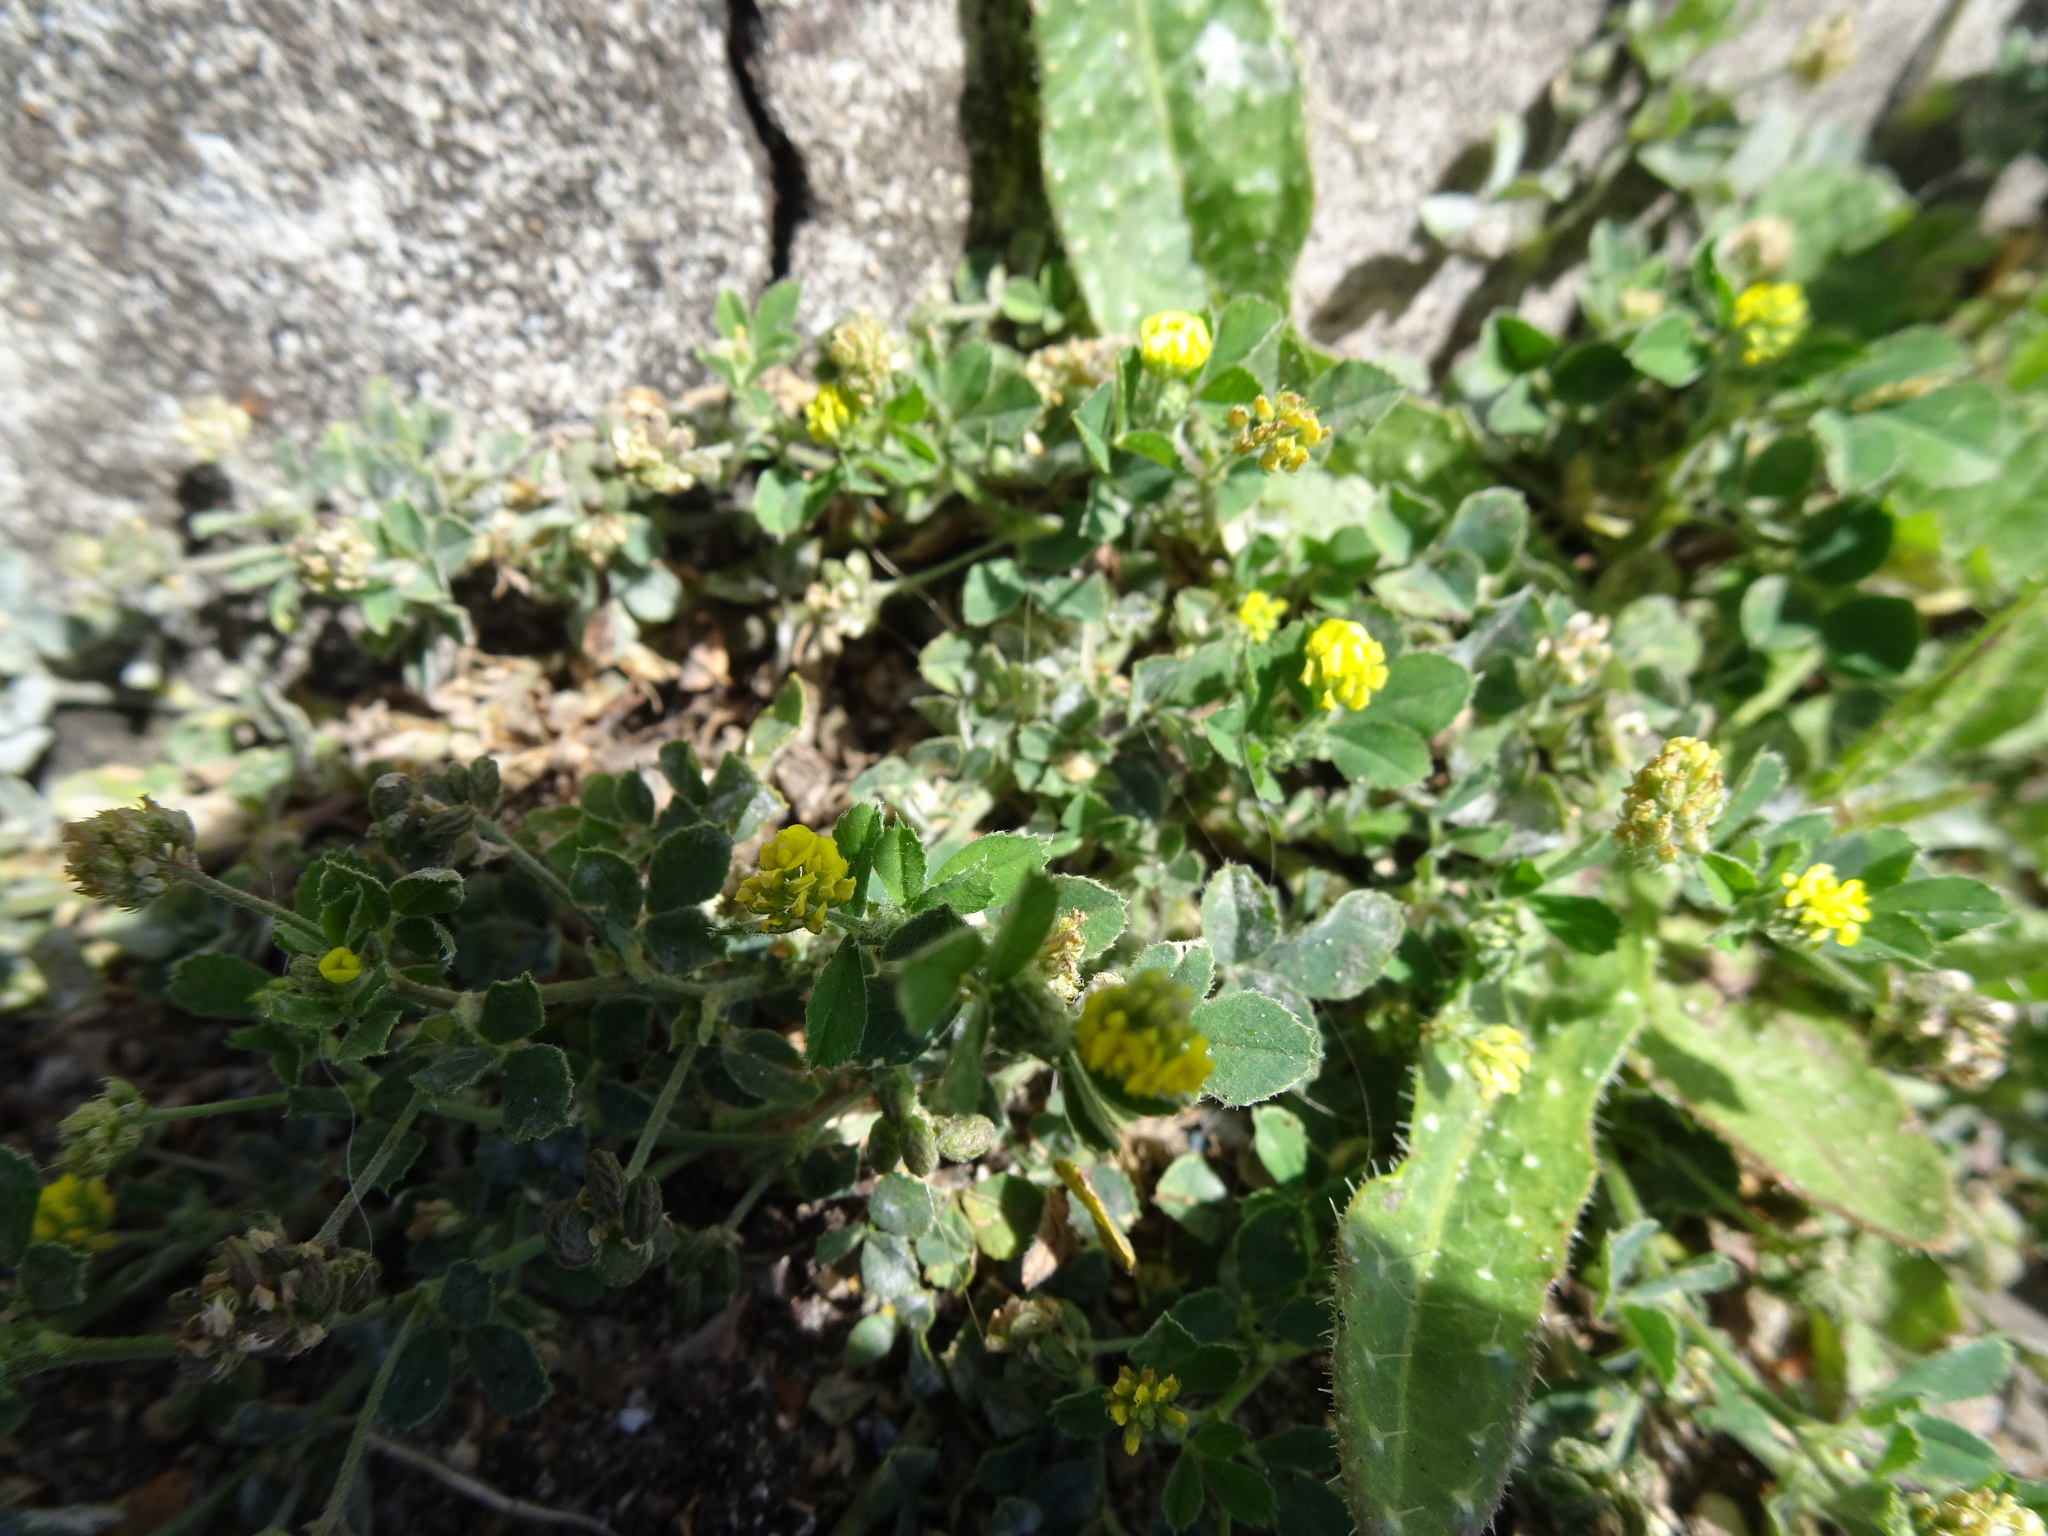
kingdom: Plantae
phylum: Tracheophyta
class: Magnoliopsida
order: Fabales
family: Fabaceae
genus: Medicago
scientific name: Medicago lupulina
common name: Black medick
